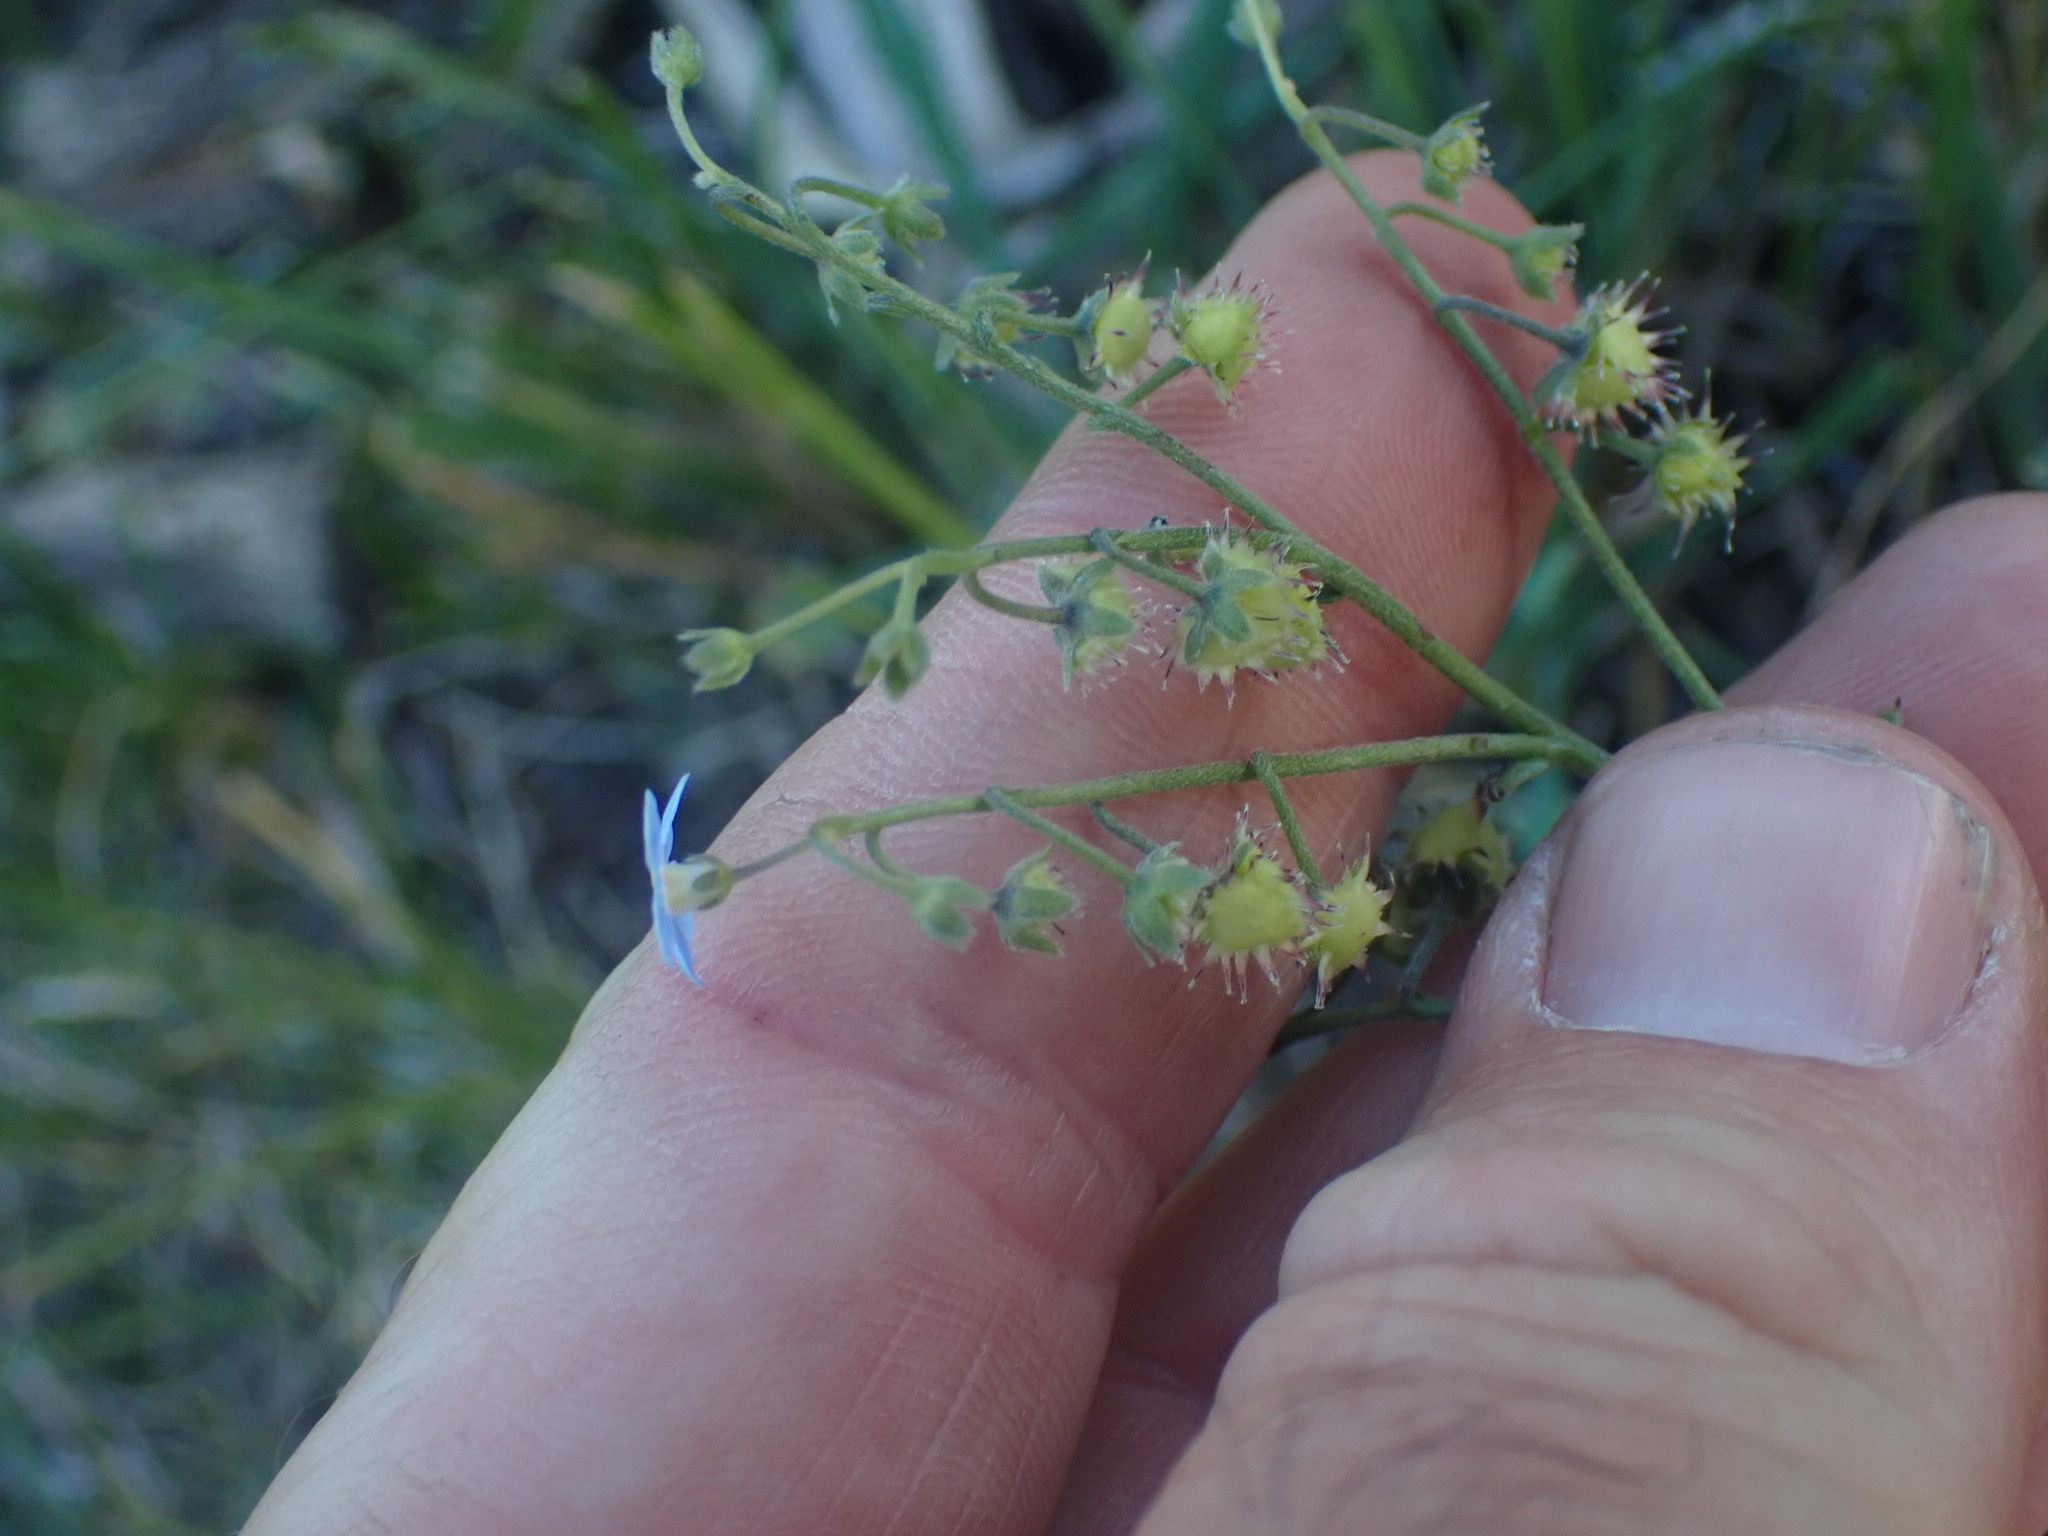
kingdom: Plantae
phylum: Tracheophyta
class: Magnoliopsida
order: Boraginales
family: Boraginaceae
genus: Hackelia
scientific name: Hackelia micrantha
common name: Meadow stickseed
